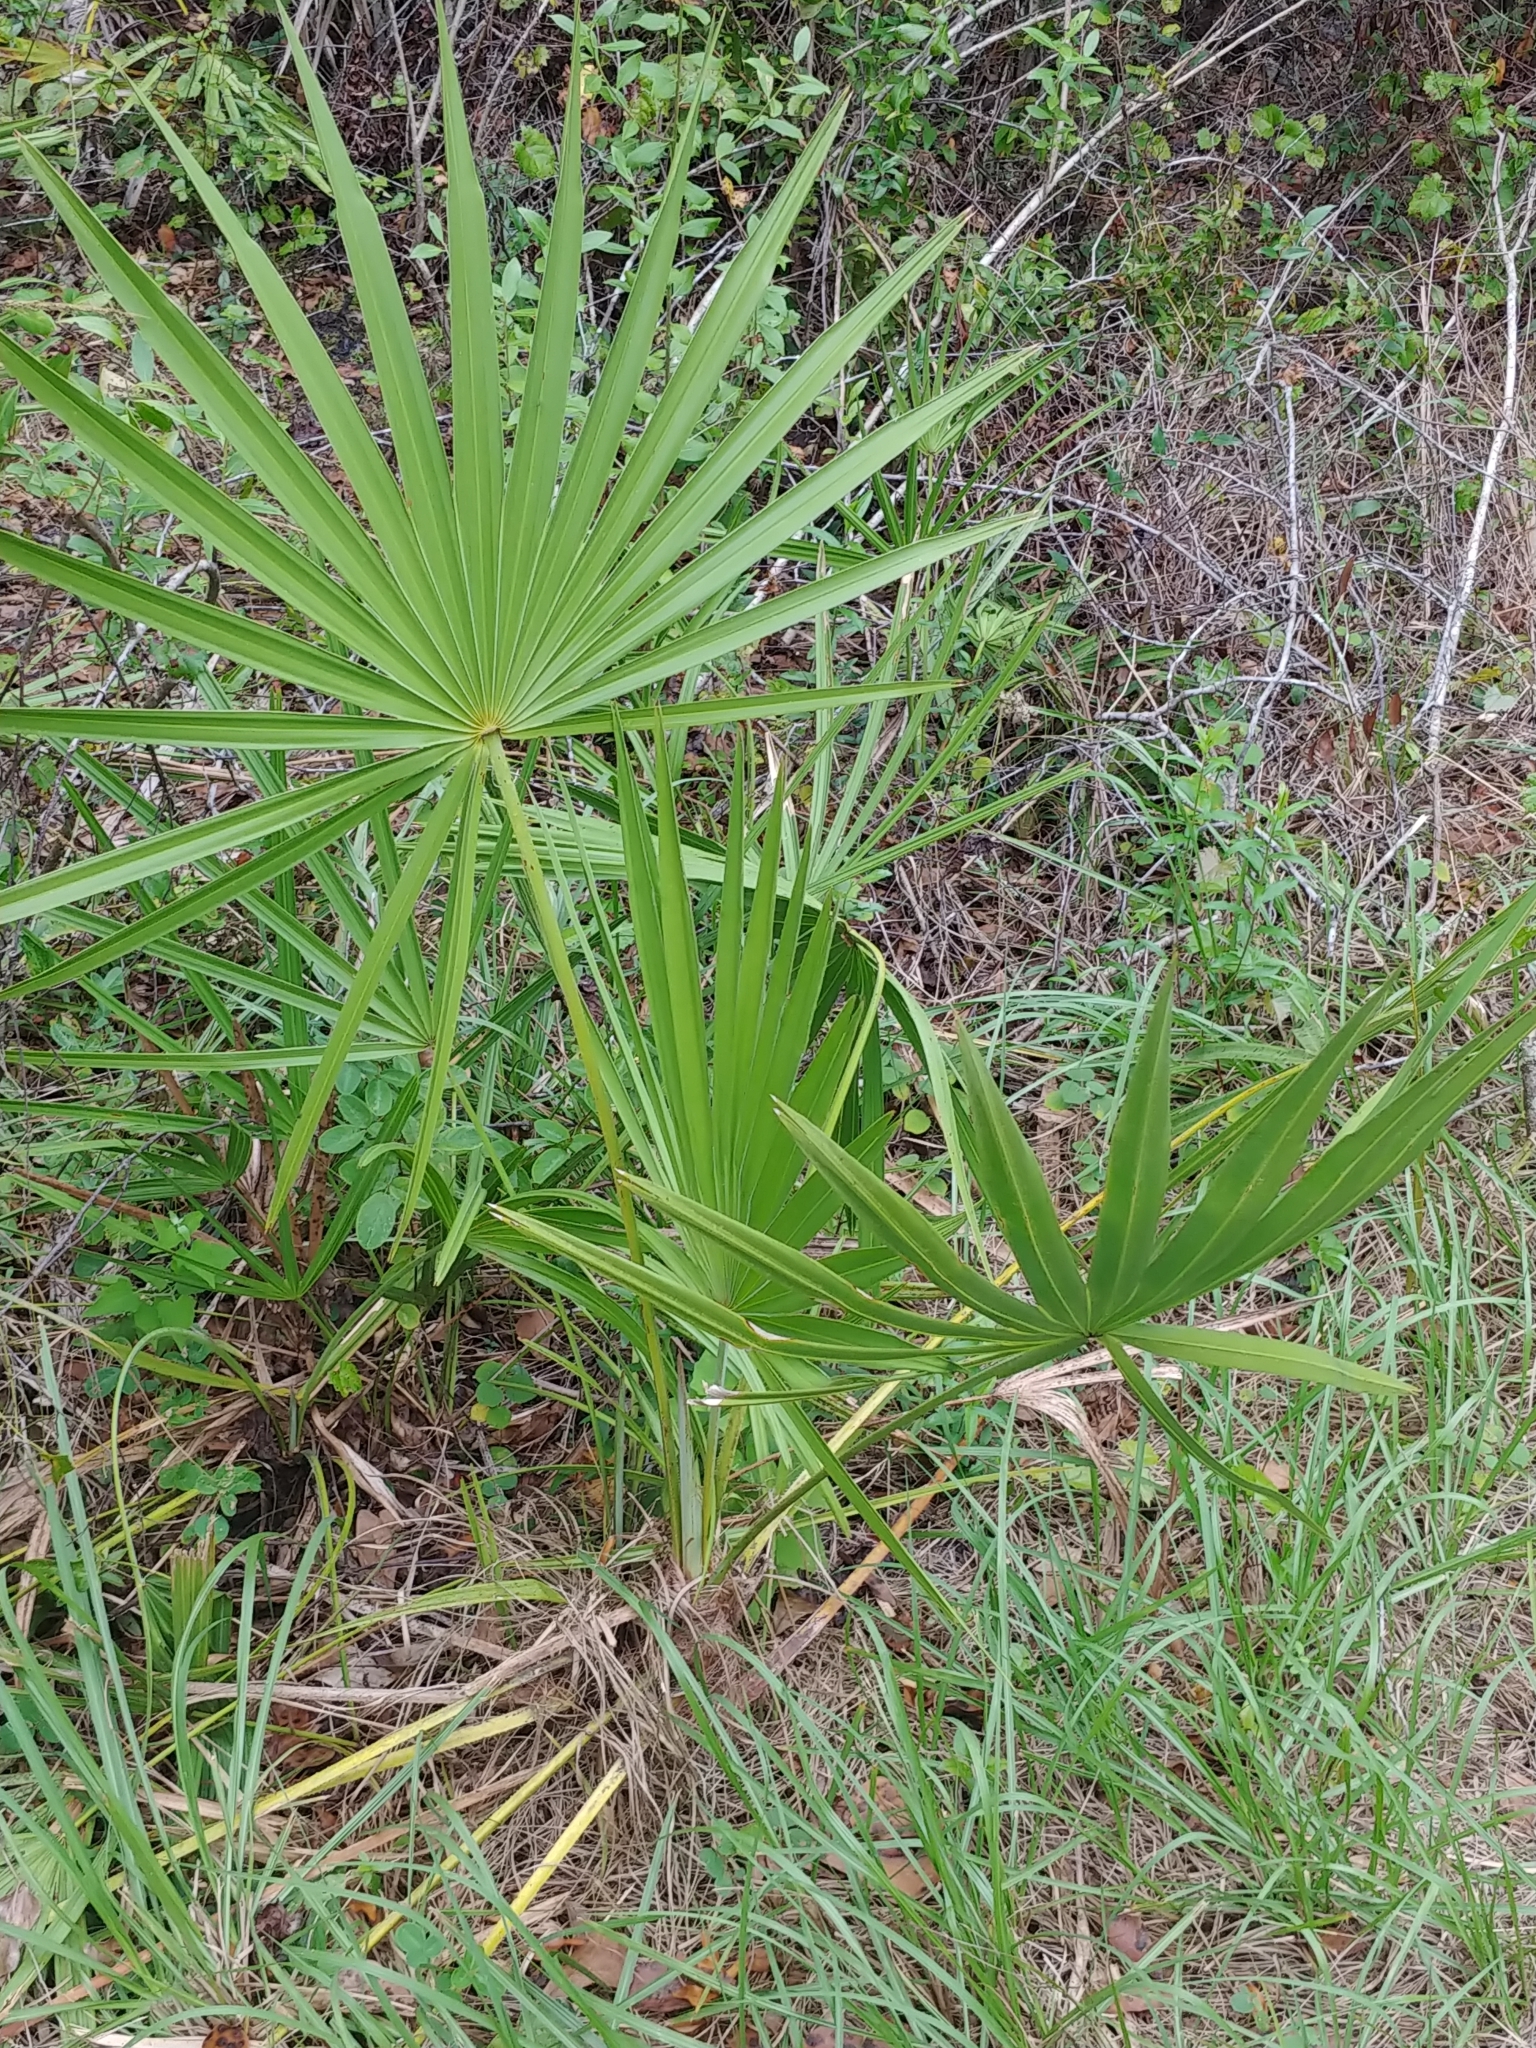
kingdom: Plantae
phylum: Tracheophyta
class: Liliopsida
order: Arecales
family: Arecaceae
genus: Serenoa
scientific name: Serenoa repens
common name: Saw-palmetto
